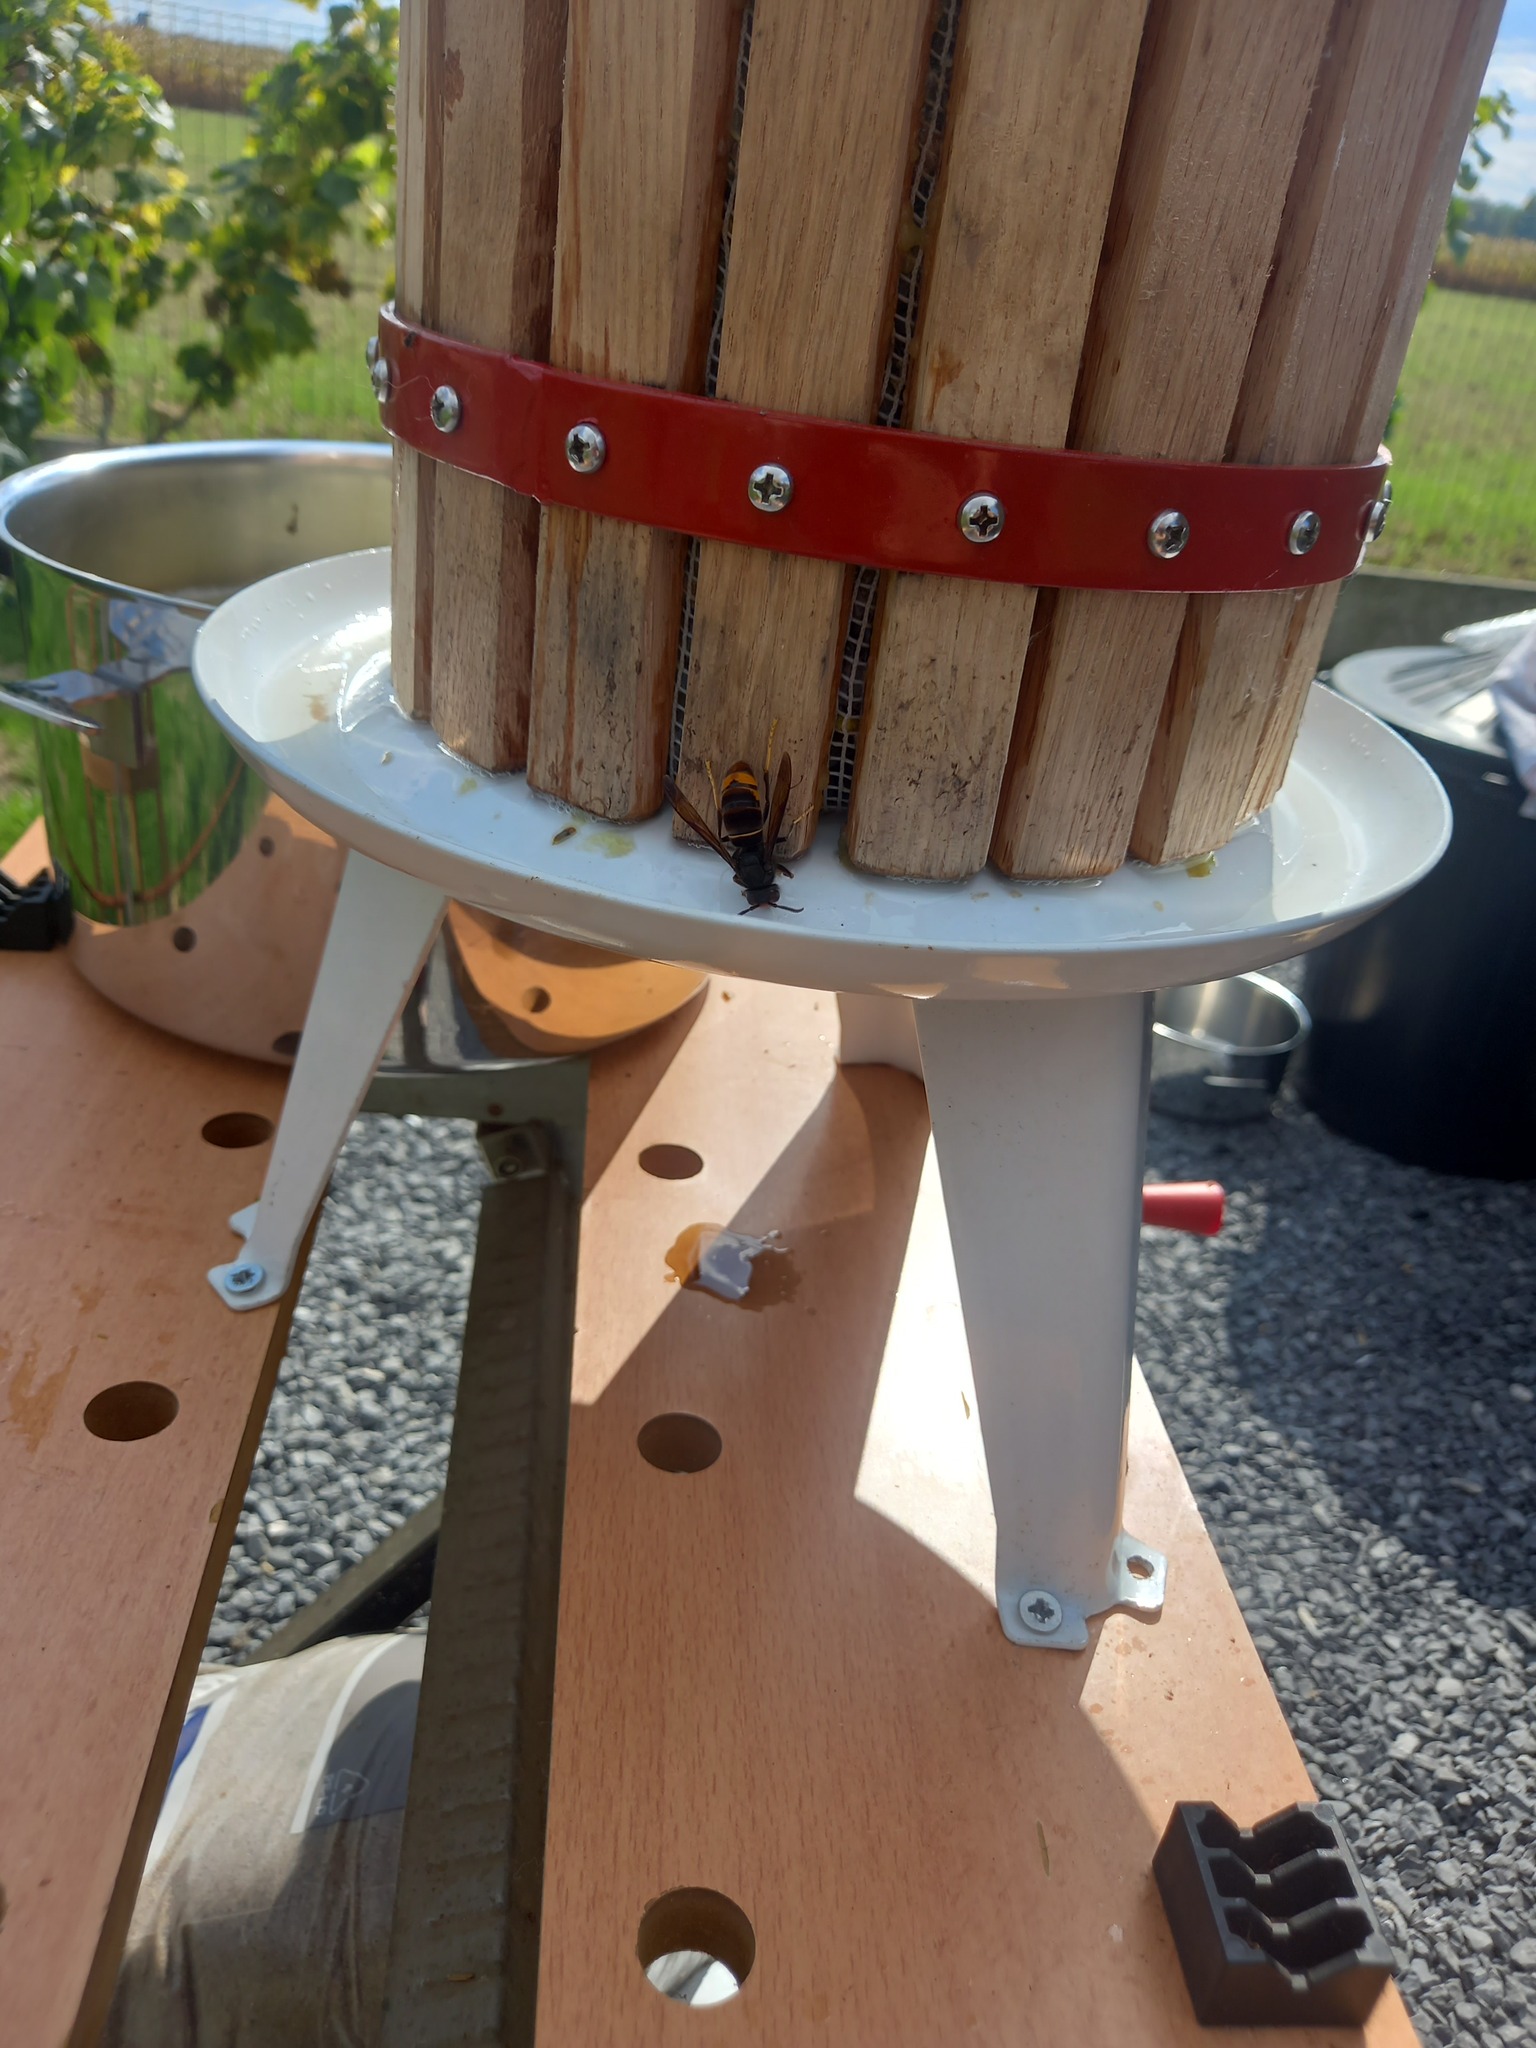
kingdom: Animalia
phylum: Arthropoda
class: Insecta
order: Hymenoptera
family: Vespidae
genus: Vespa
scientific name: Vespa velutina
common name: Asian hornet
